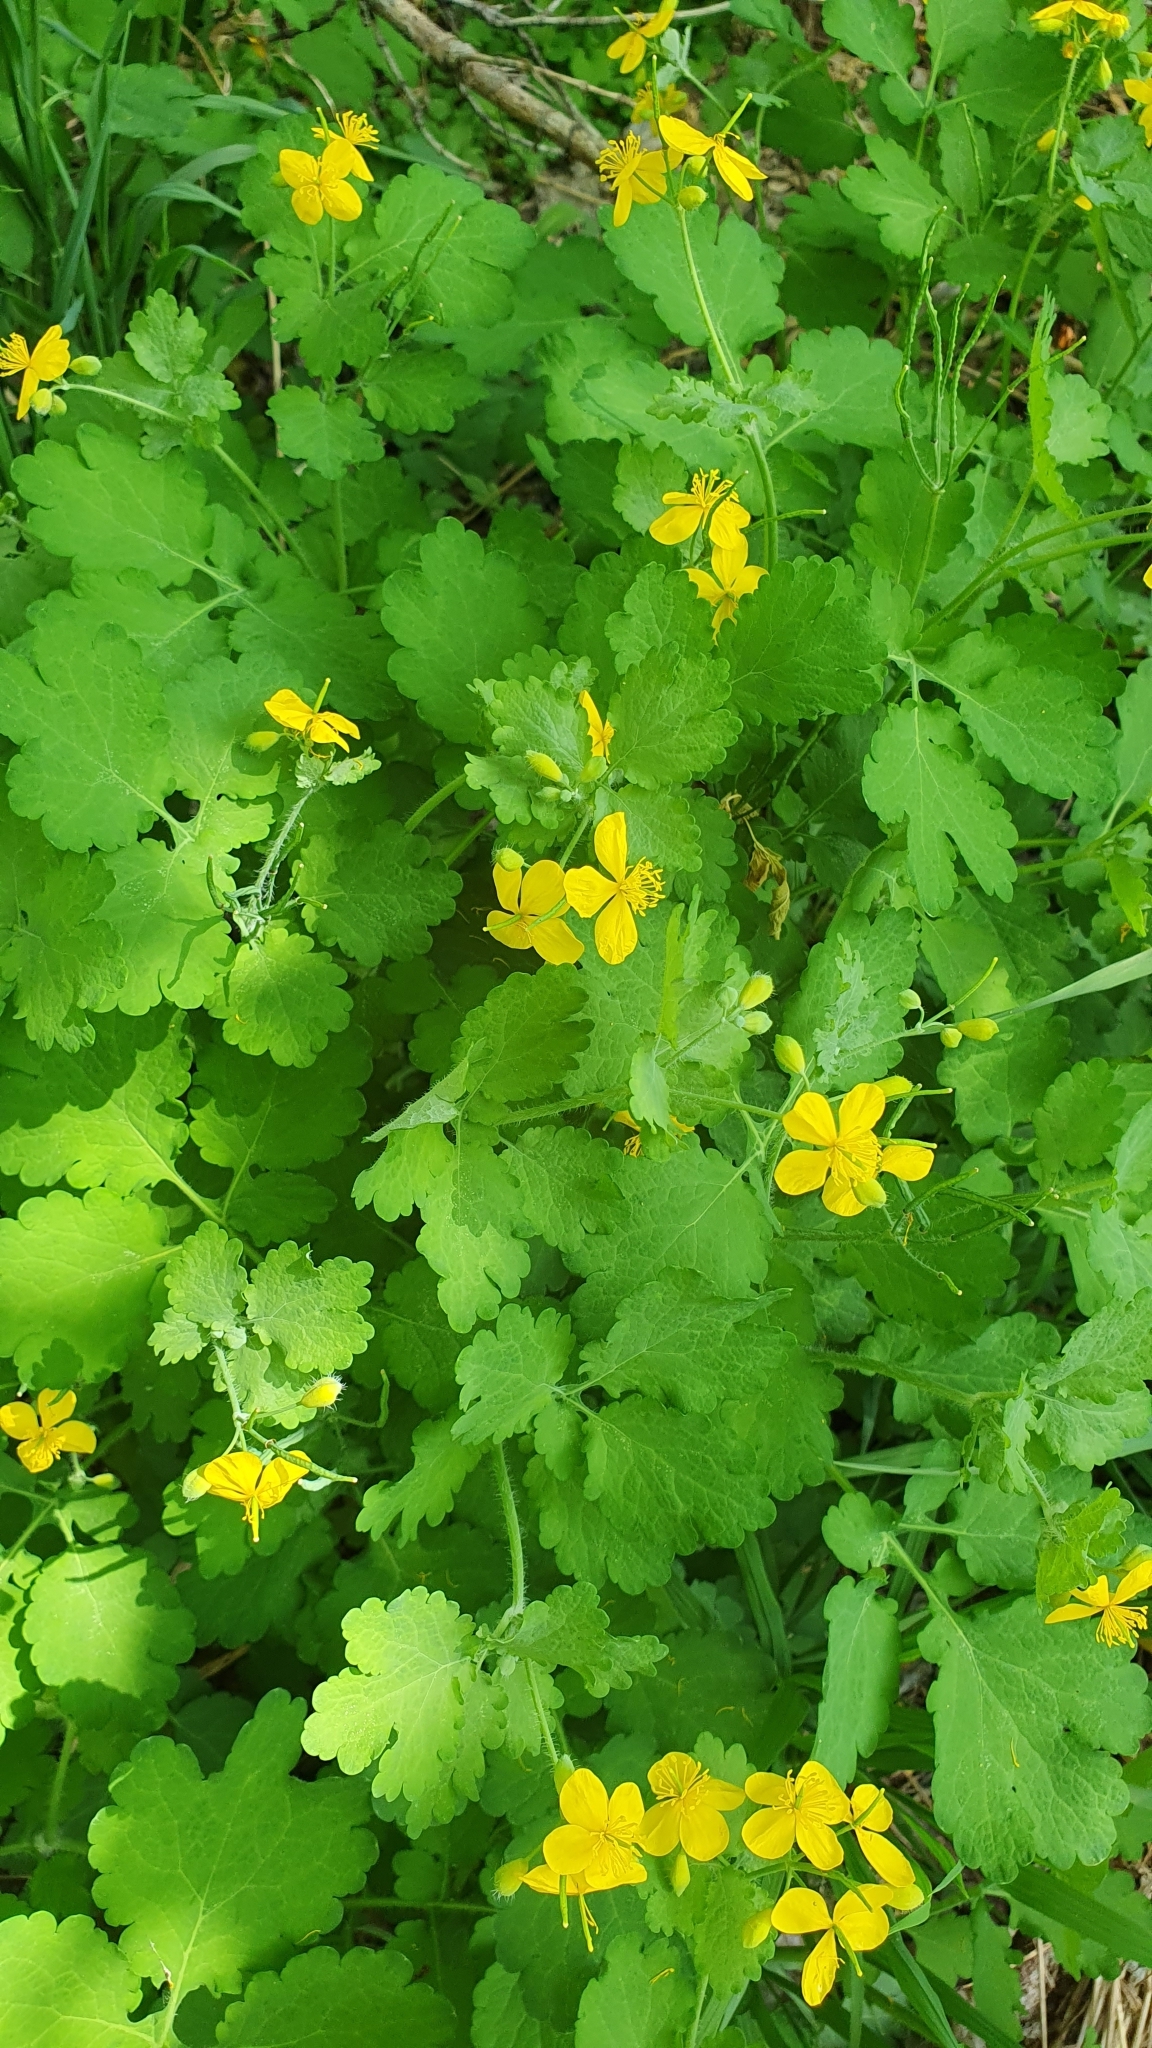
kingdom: Plantae
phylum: Tracheophyta
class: Magnoliopsida
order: Ranunculales
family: Papaveraceae
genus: Chelidonium
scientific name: Chelidonium majus
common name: Greater celandine
